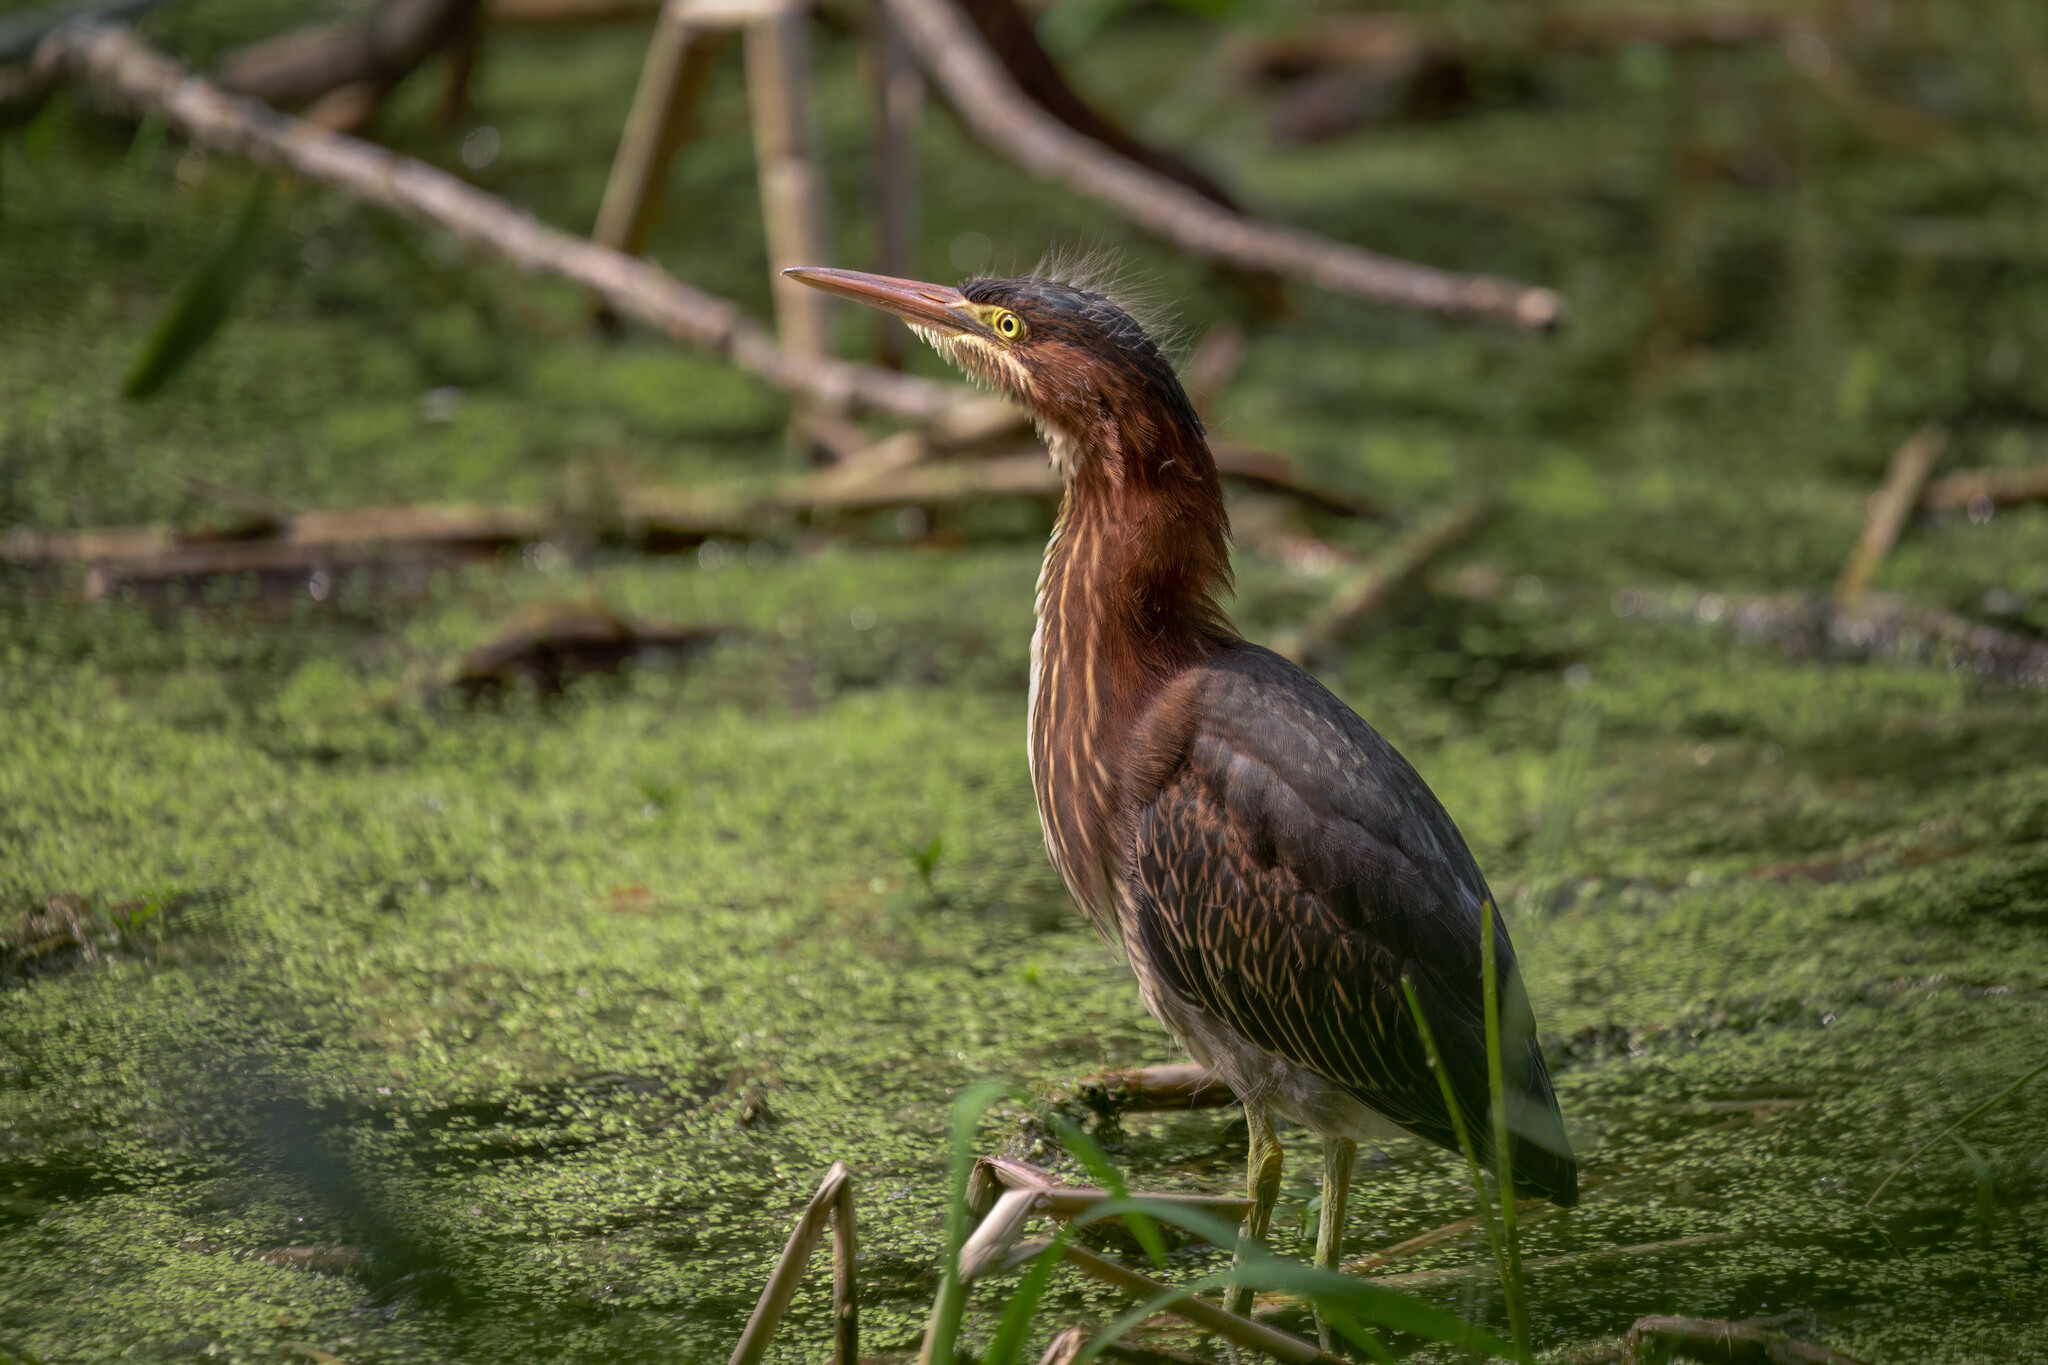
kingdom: Animalia
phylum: Chordata
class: Aves
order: Pelecaniformes
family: Ardeidae
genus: Butorides
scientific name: Butorides virescens
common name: Green heron
